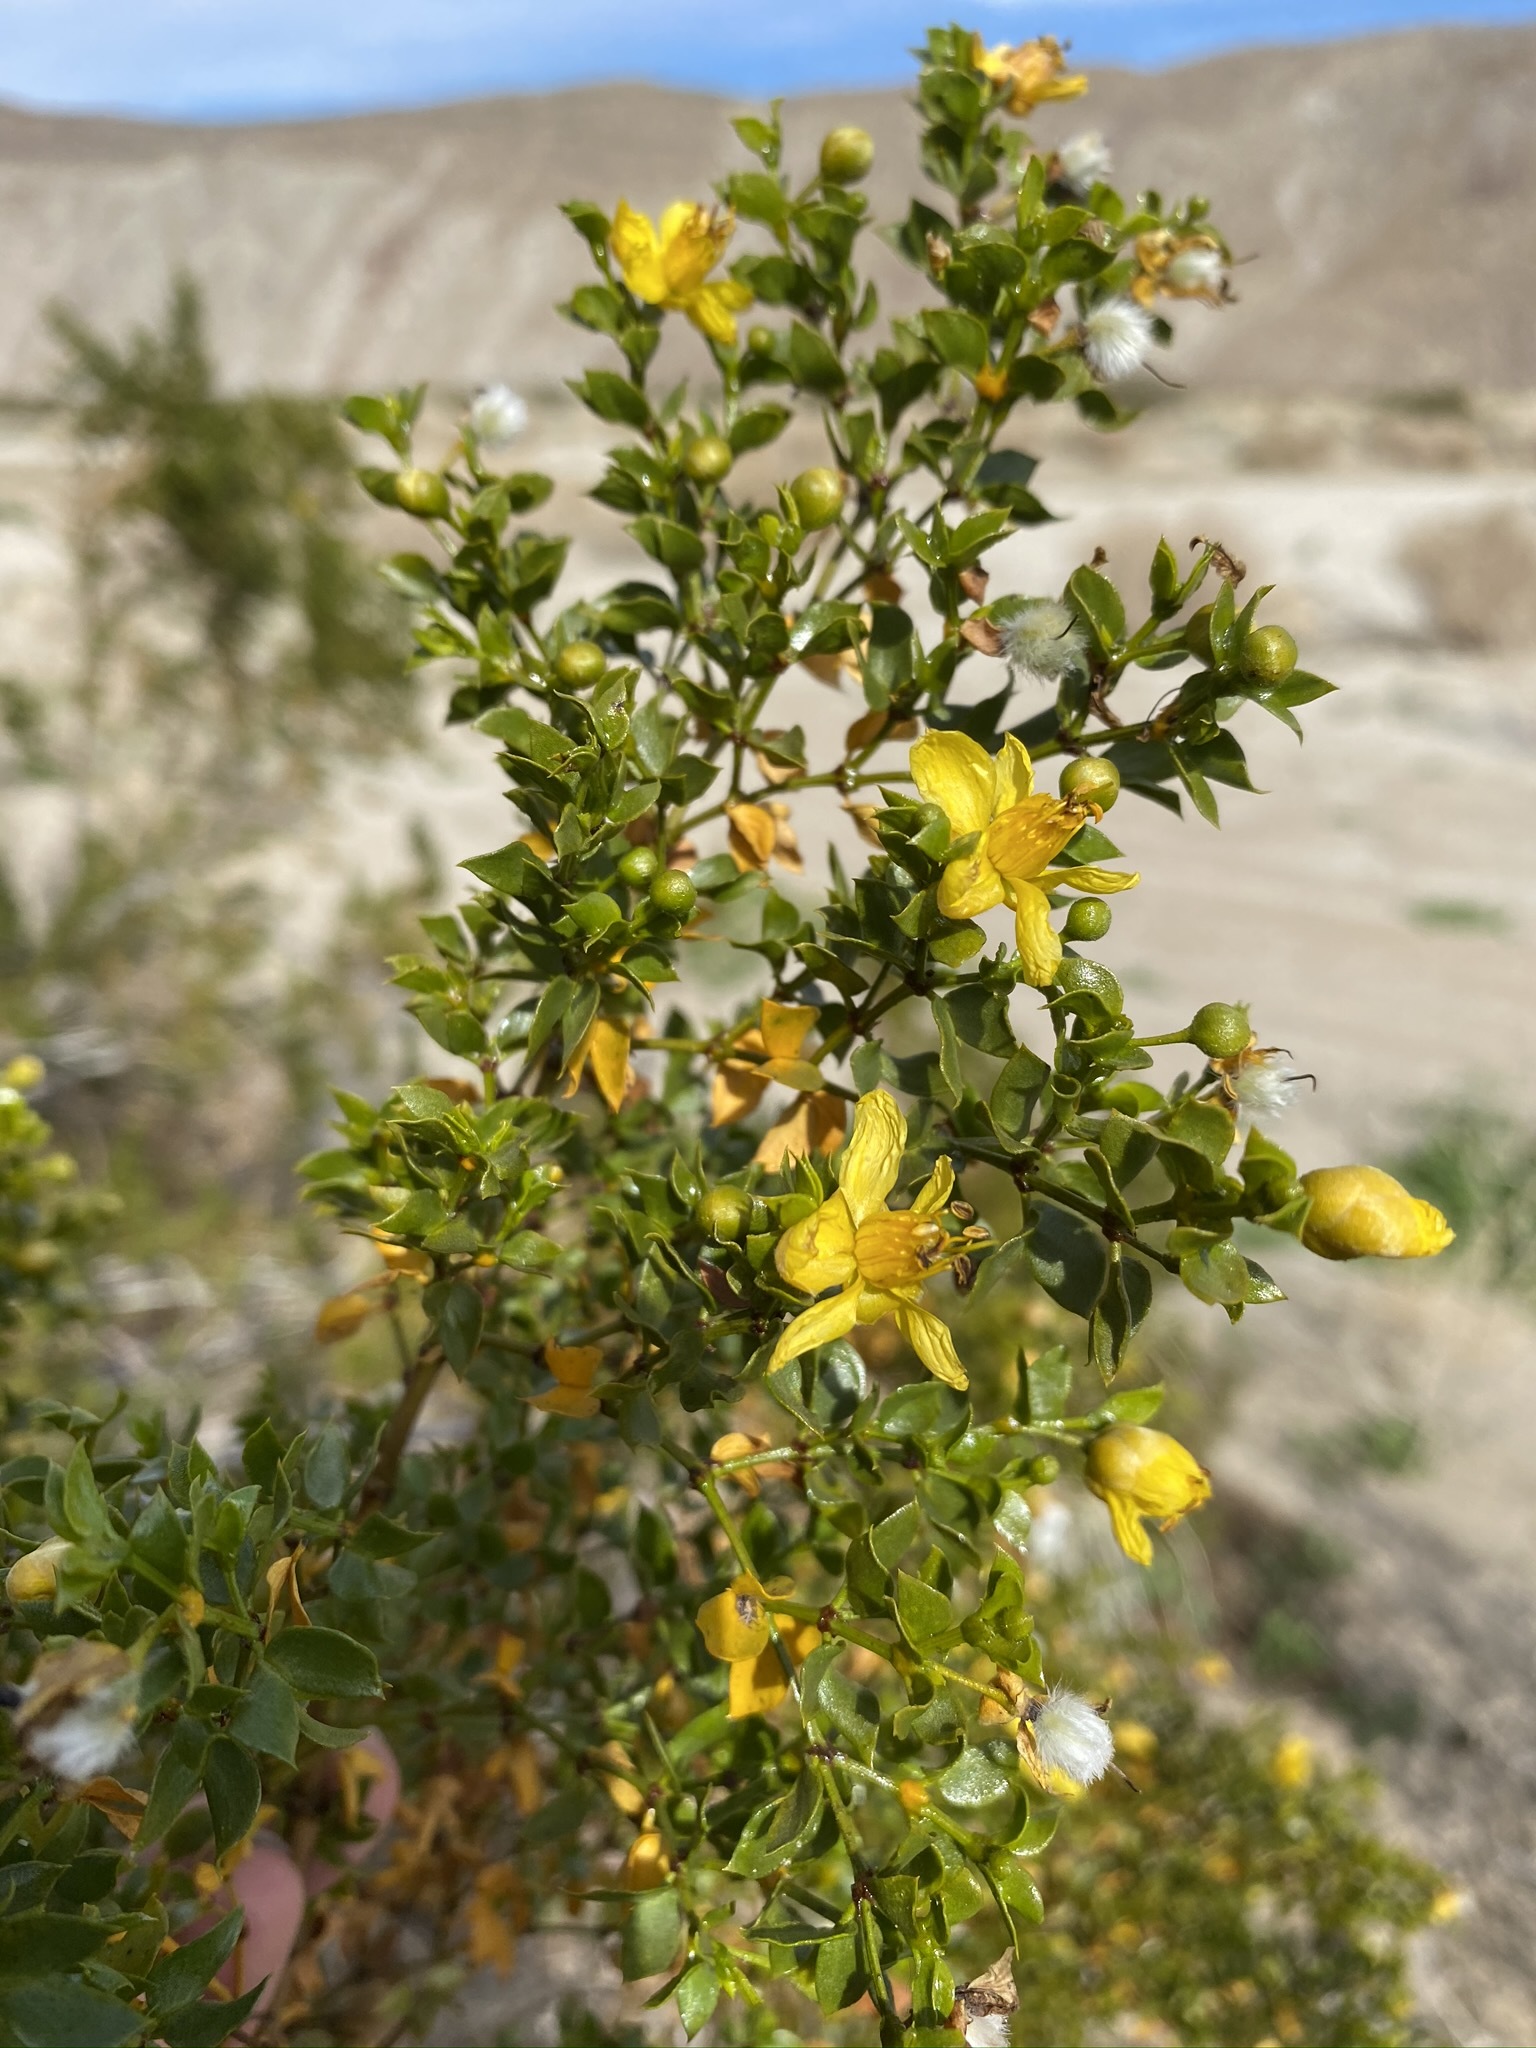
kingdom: Plantae
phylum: Tracheophyta
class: Magnoliopsida
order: Zygophyllales
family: Zygophyllaceae
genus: Larrea
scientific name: Larrea tridentata
